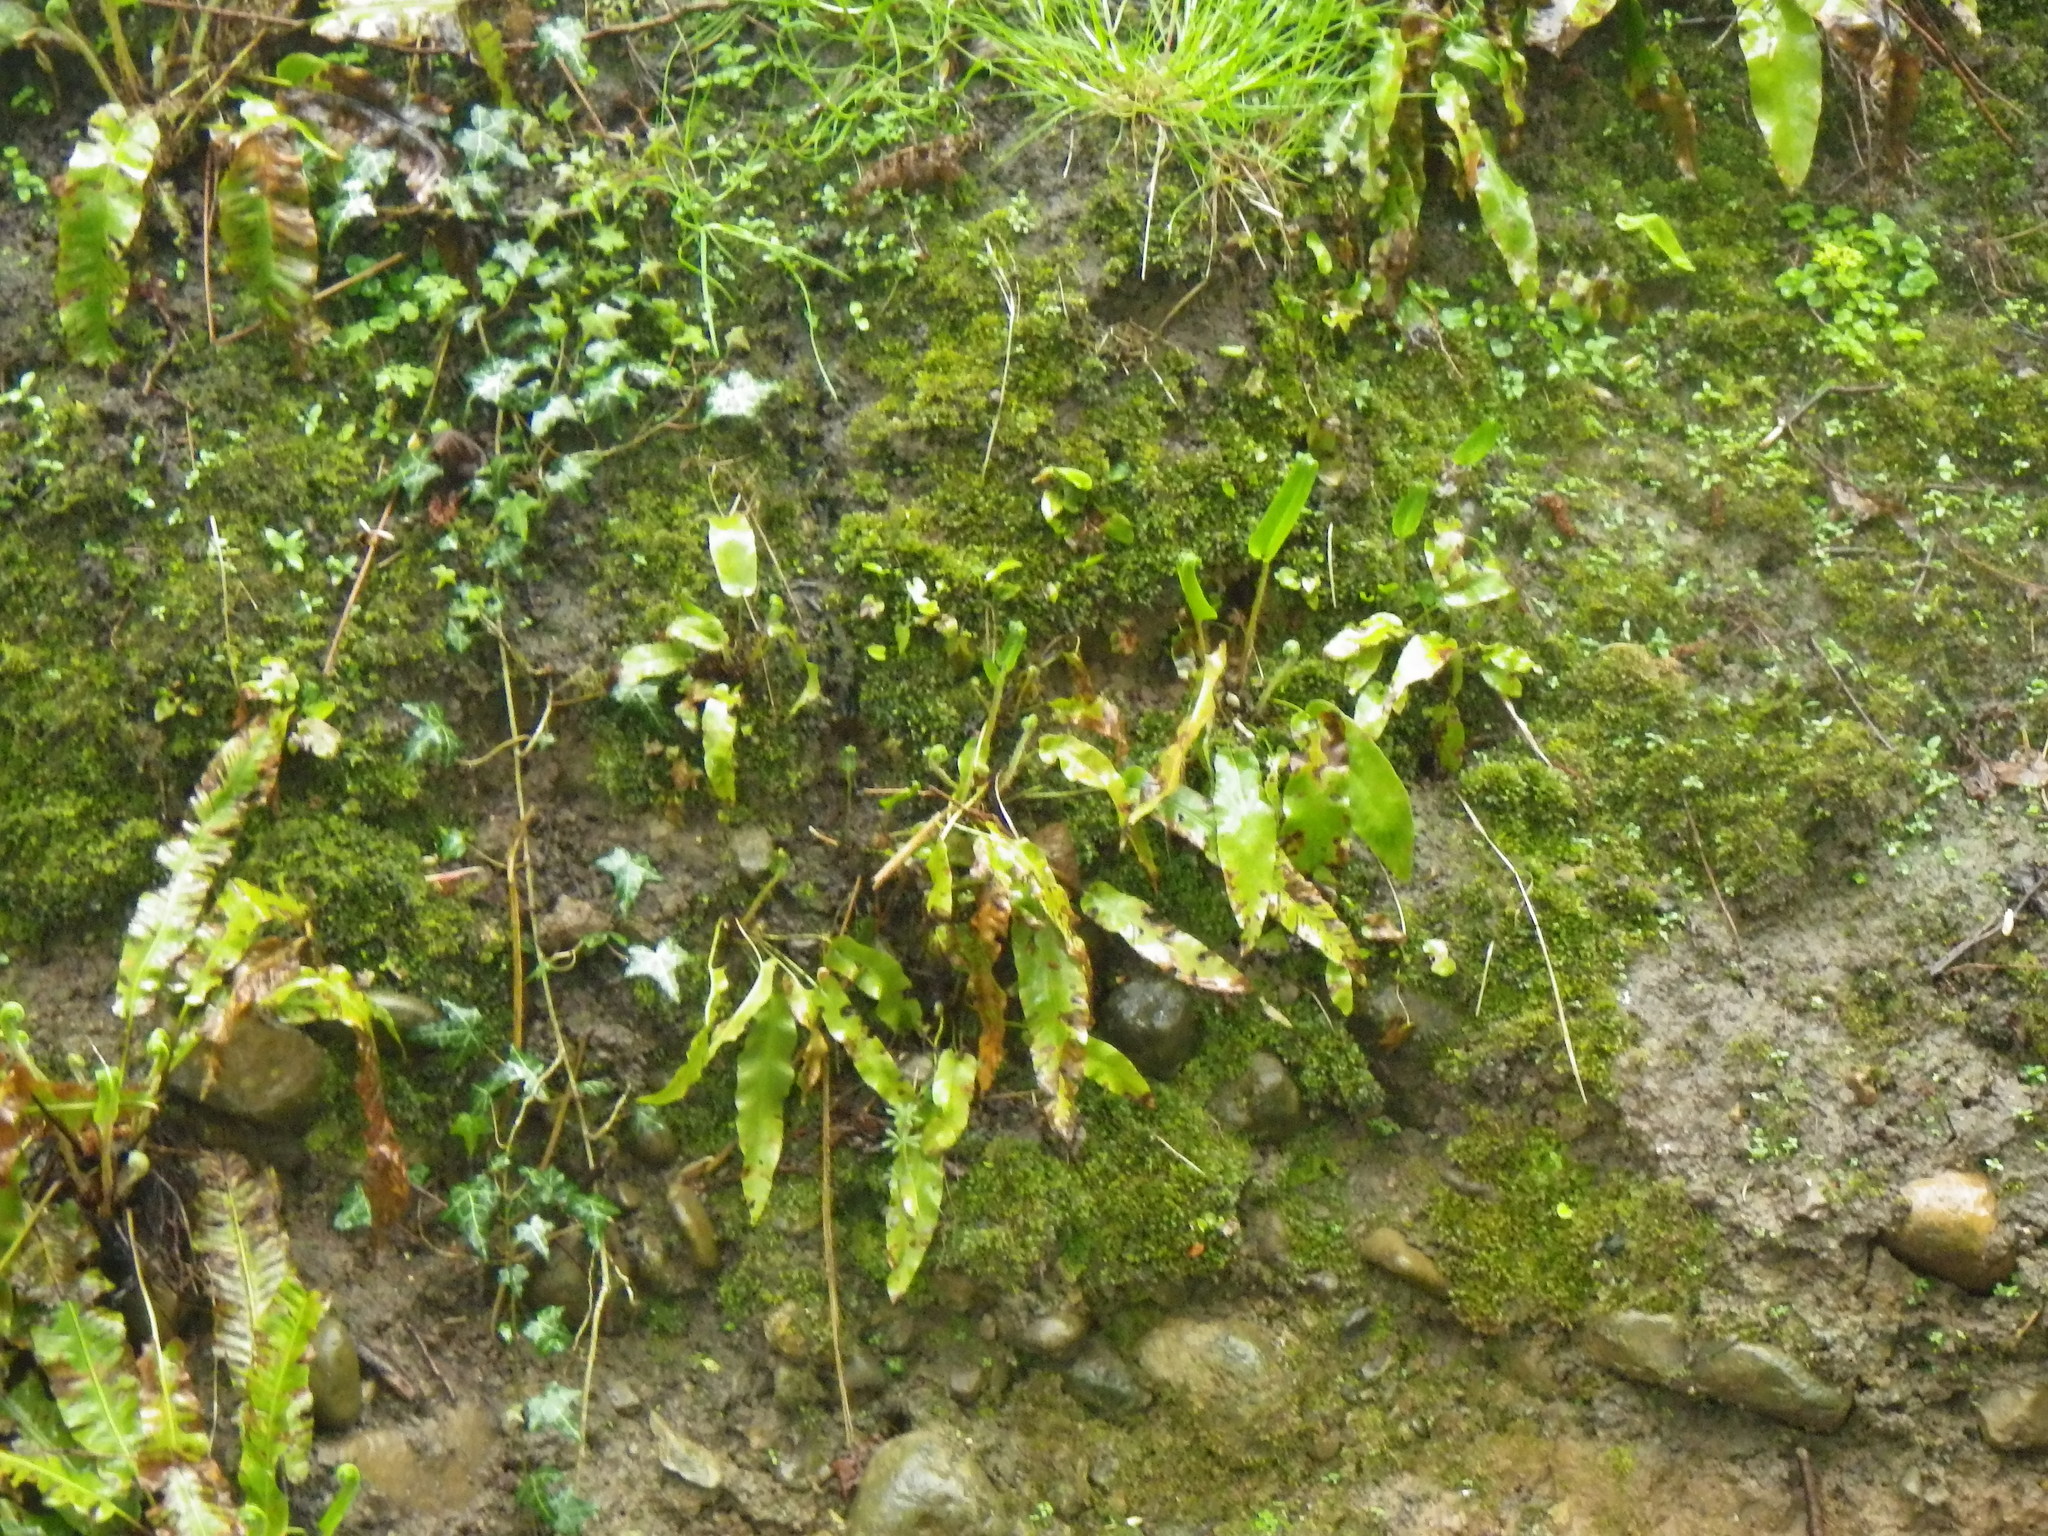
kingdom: Plantae
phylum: Tracheophyta
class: Polypodiopsida
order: Polypodiales
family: Aspleniaceae
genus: Asplenium
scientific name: Asplenium scolopendrium
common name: Hart's-tongue fern
